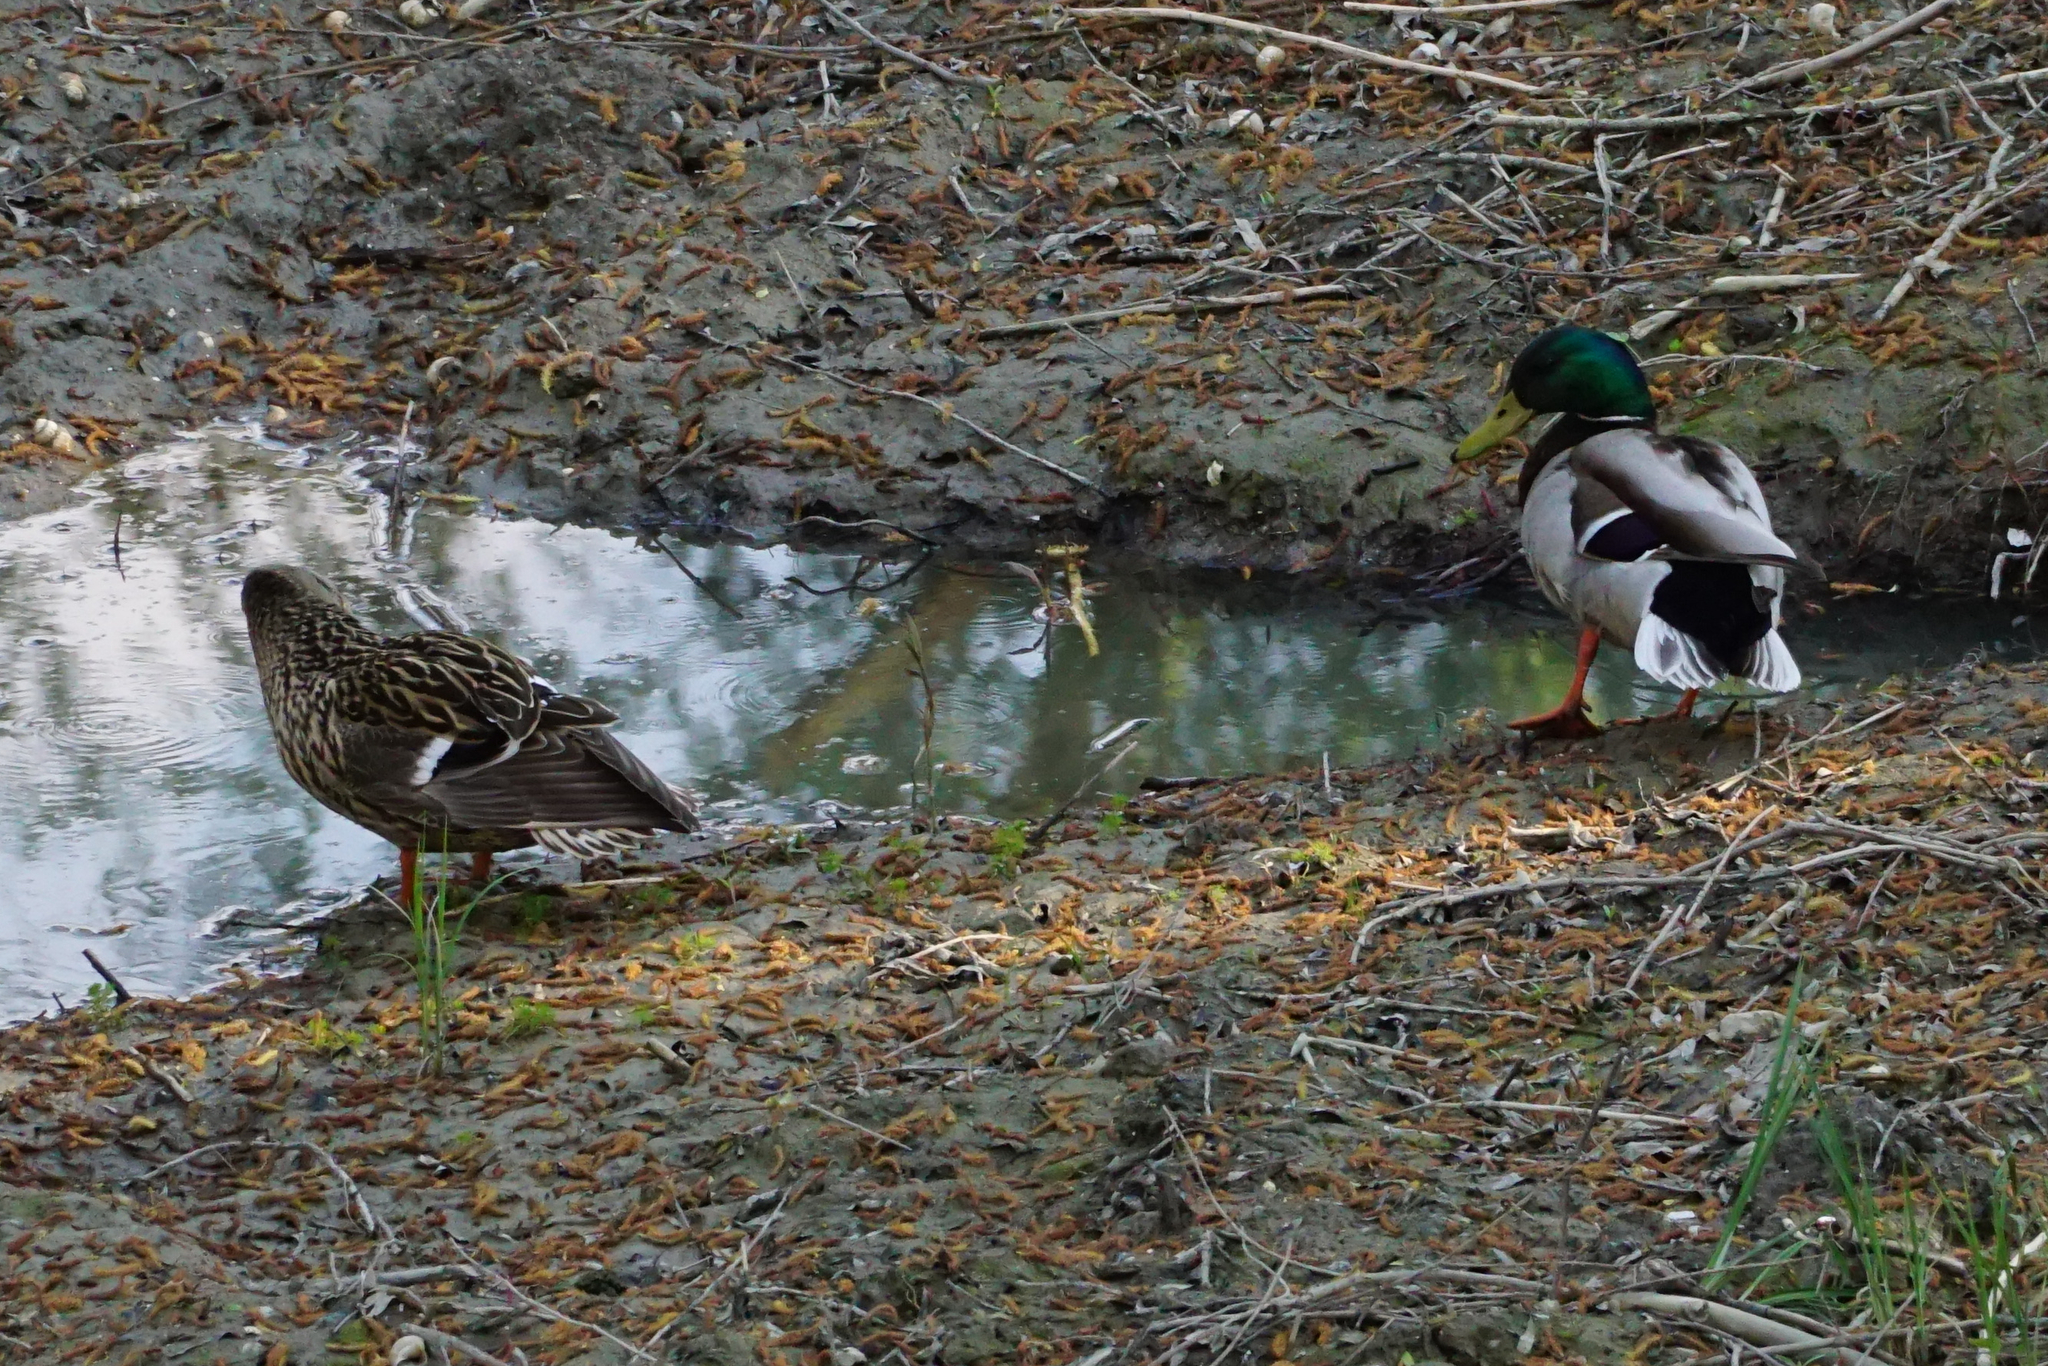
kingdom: Animalia
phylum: Chordata
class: Aves
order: Anseriformes
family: Anatidae
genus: Anas
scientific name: Anas platyrhynchos
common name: Mallard
